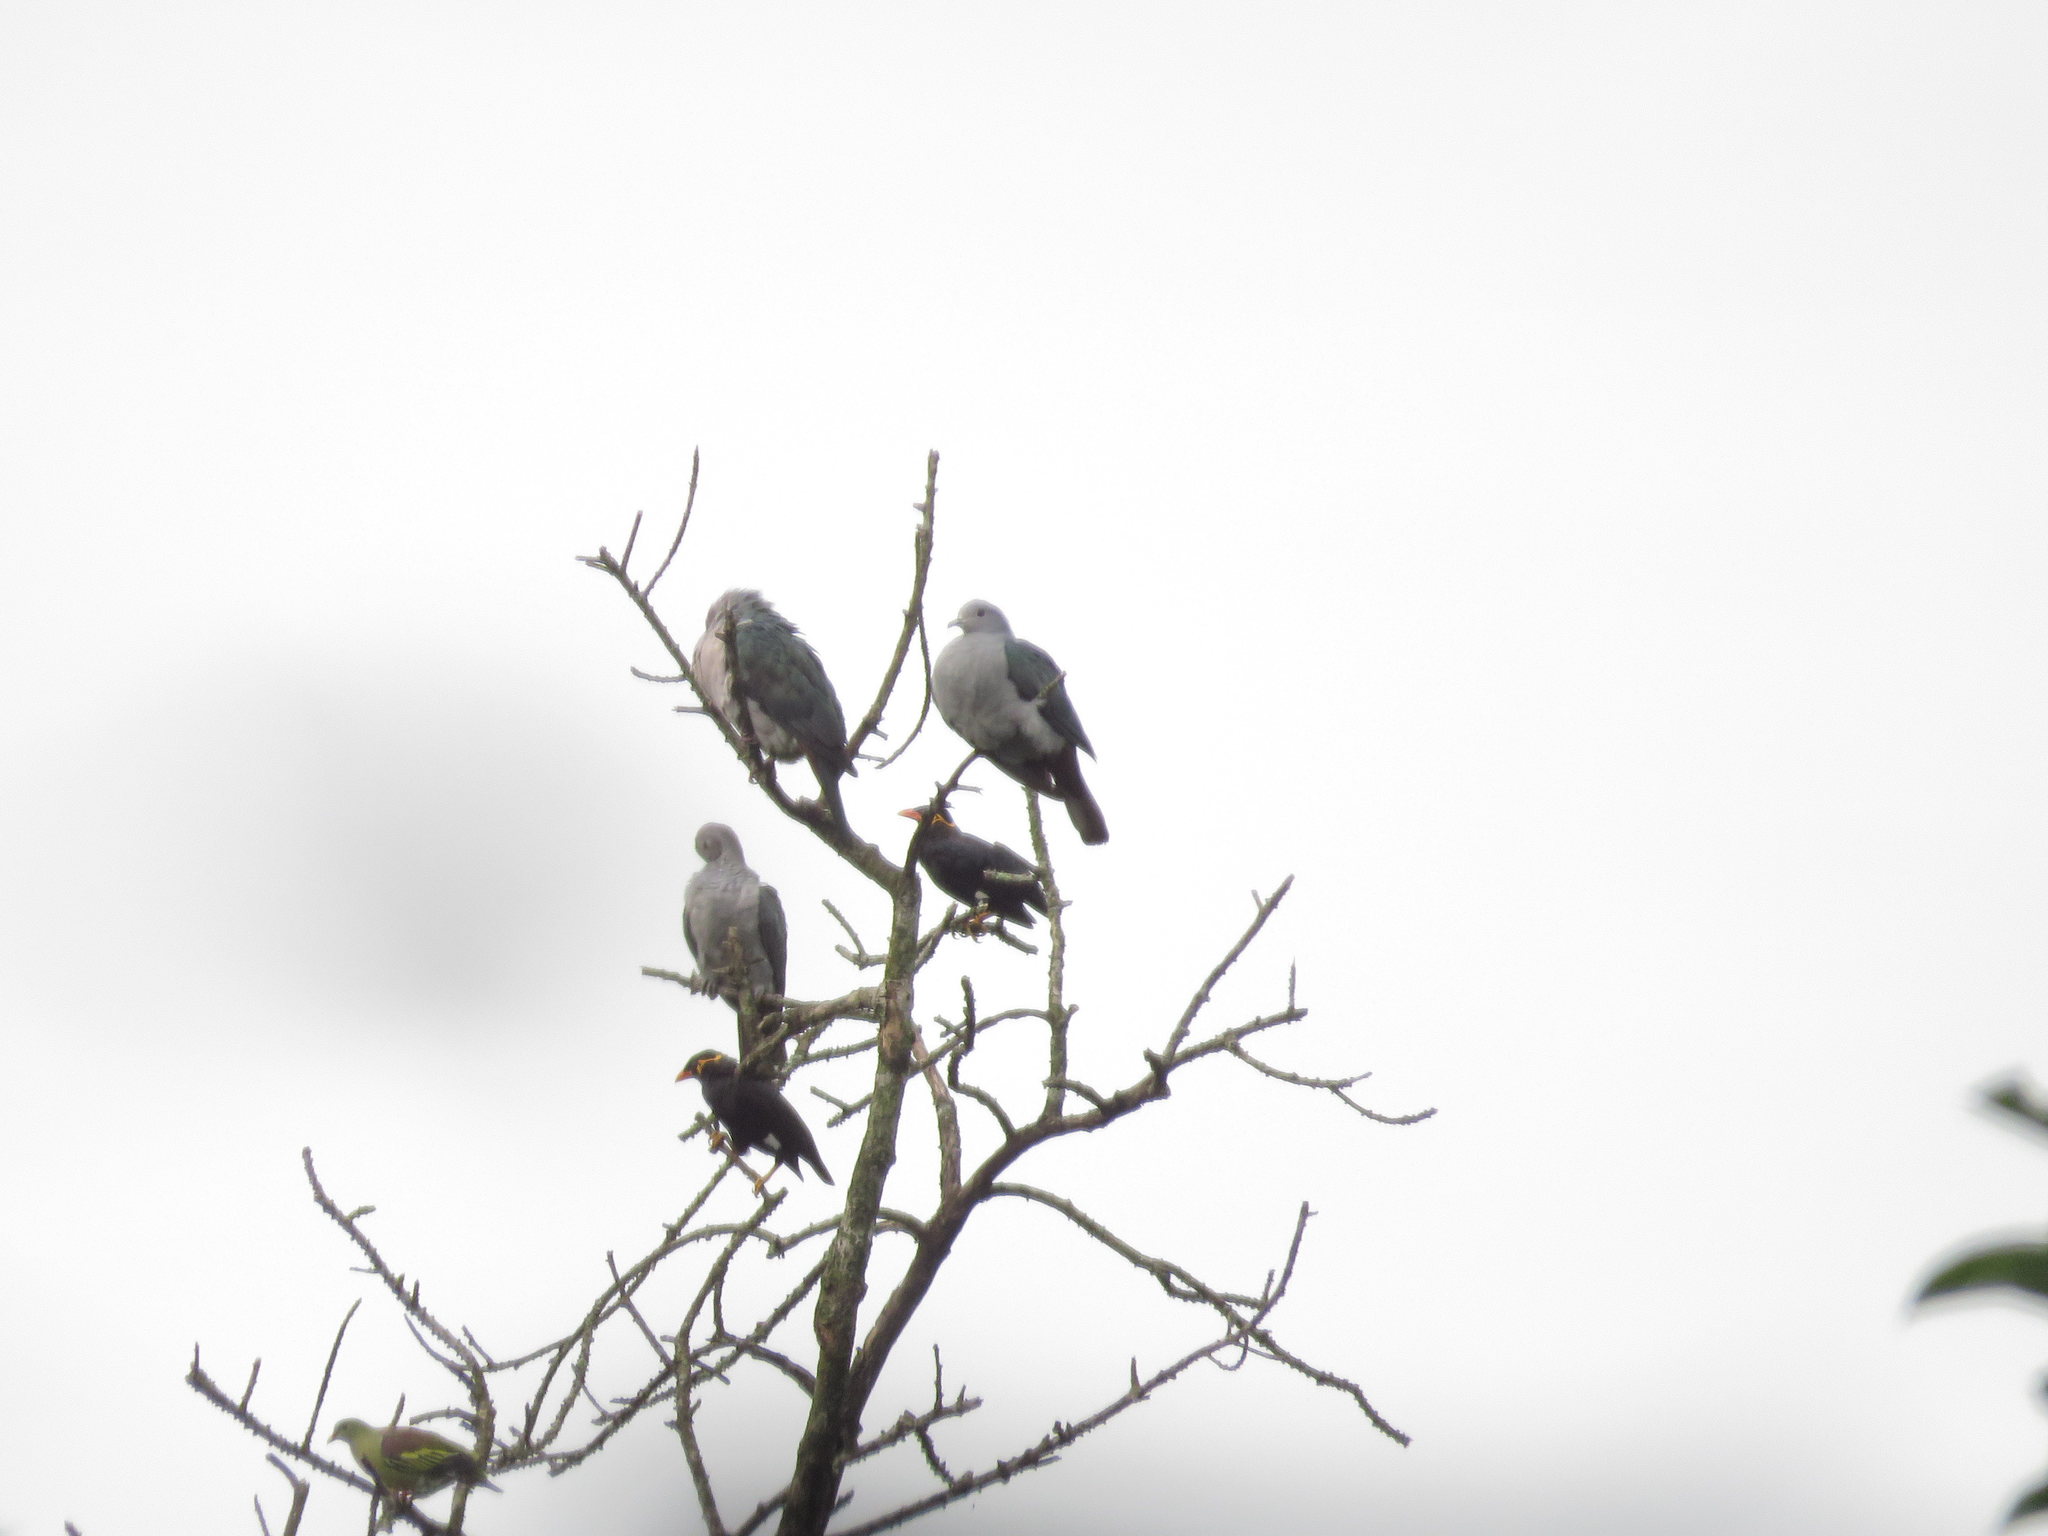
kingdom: Animalia
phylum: Chordata
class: Aves
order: Columbiformes
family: Columbidae
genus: Ducula
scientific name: Ducula aenea
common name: Green imperial pigeon
